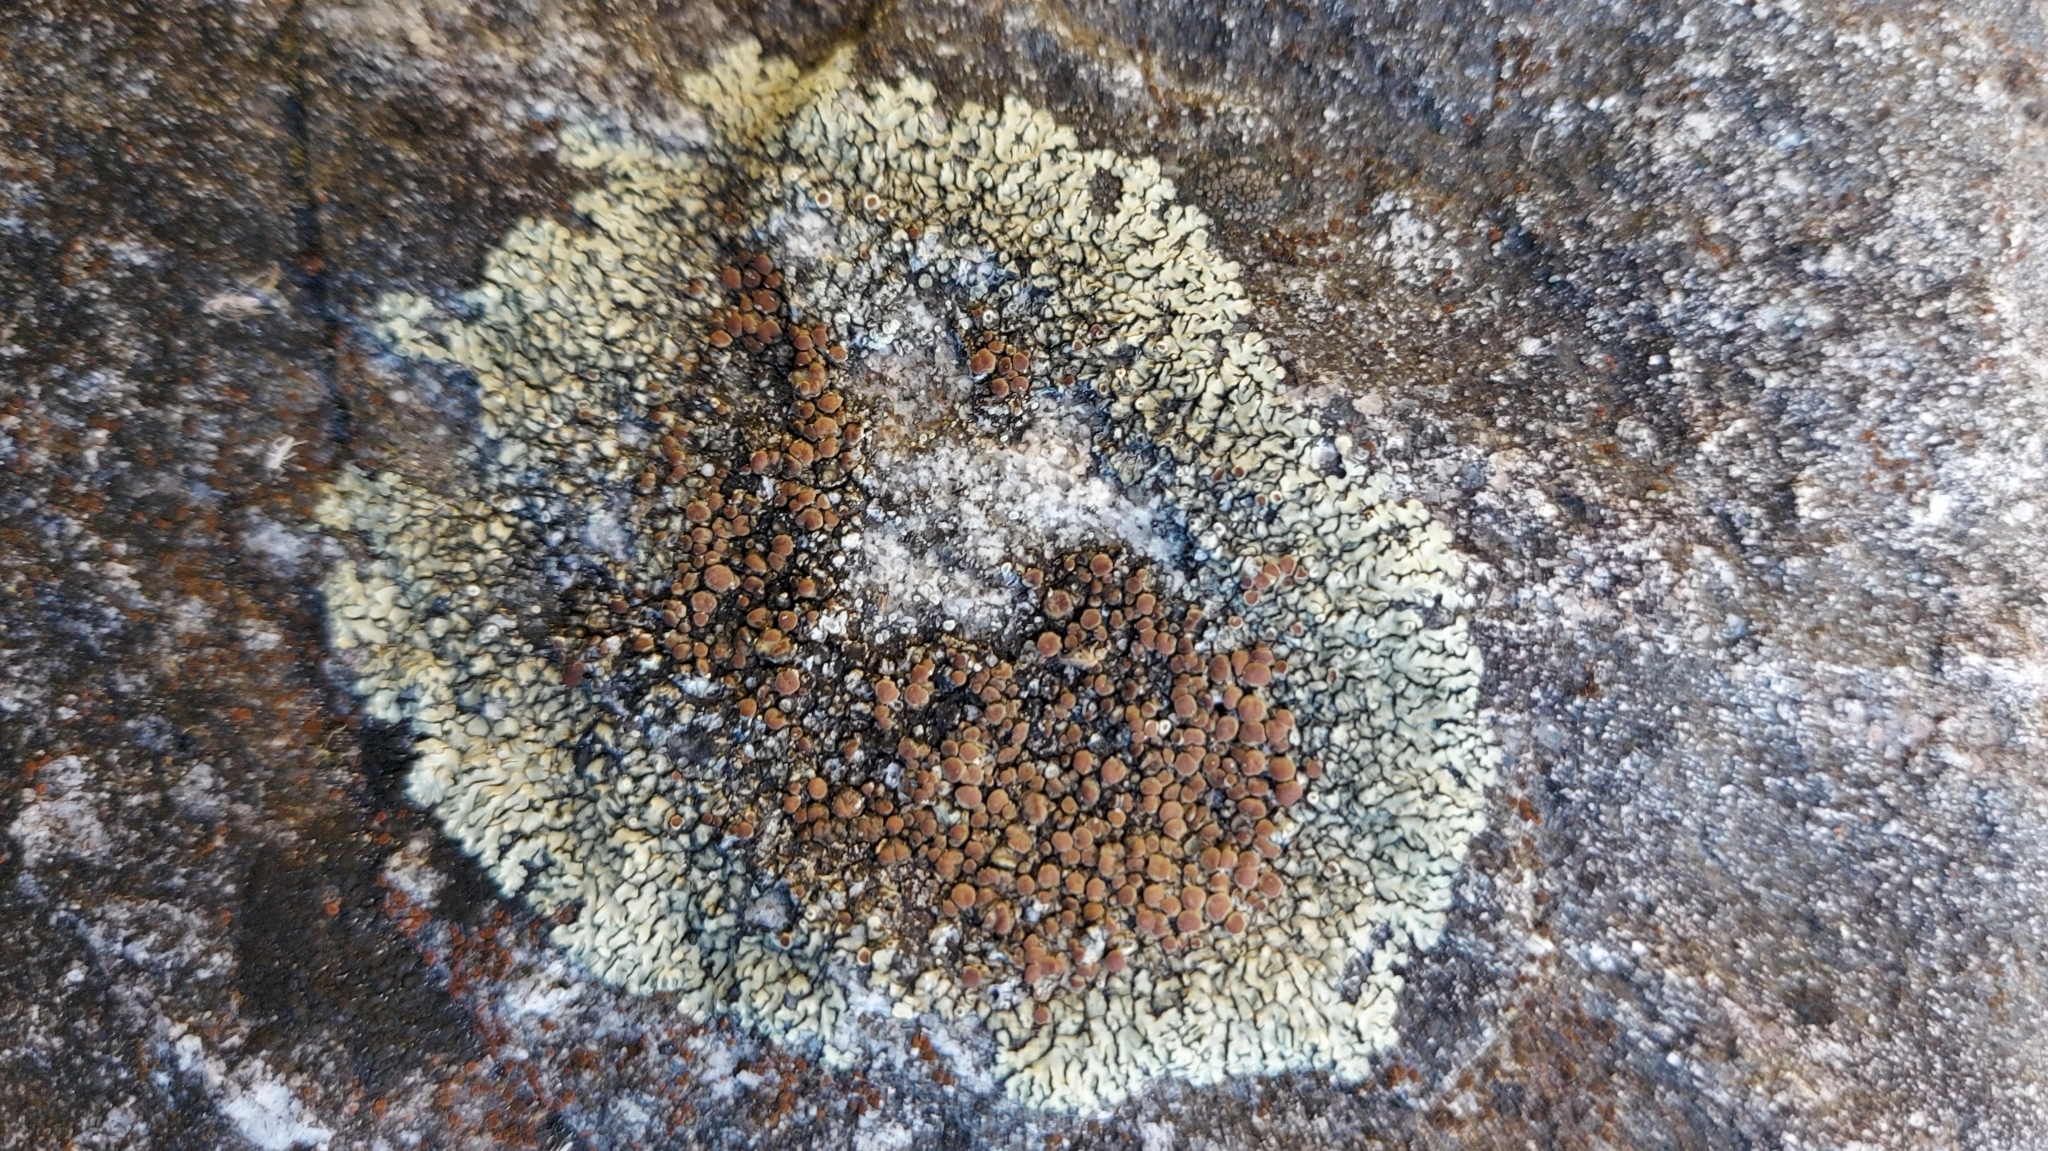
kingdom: Fungi
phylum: Ascomycota
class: Lecanoromycetes
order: Lecanorales
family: Lecanoraceae
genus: Protoparmeliopsis
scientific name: Protoparmeliopsis muralis
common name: Stonewall rim lichen
